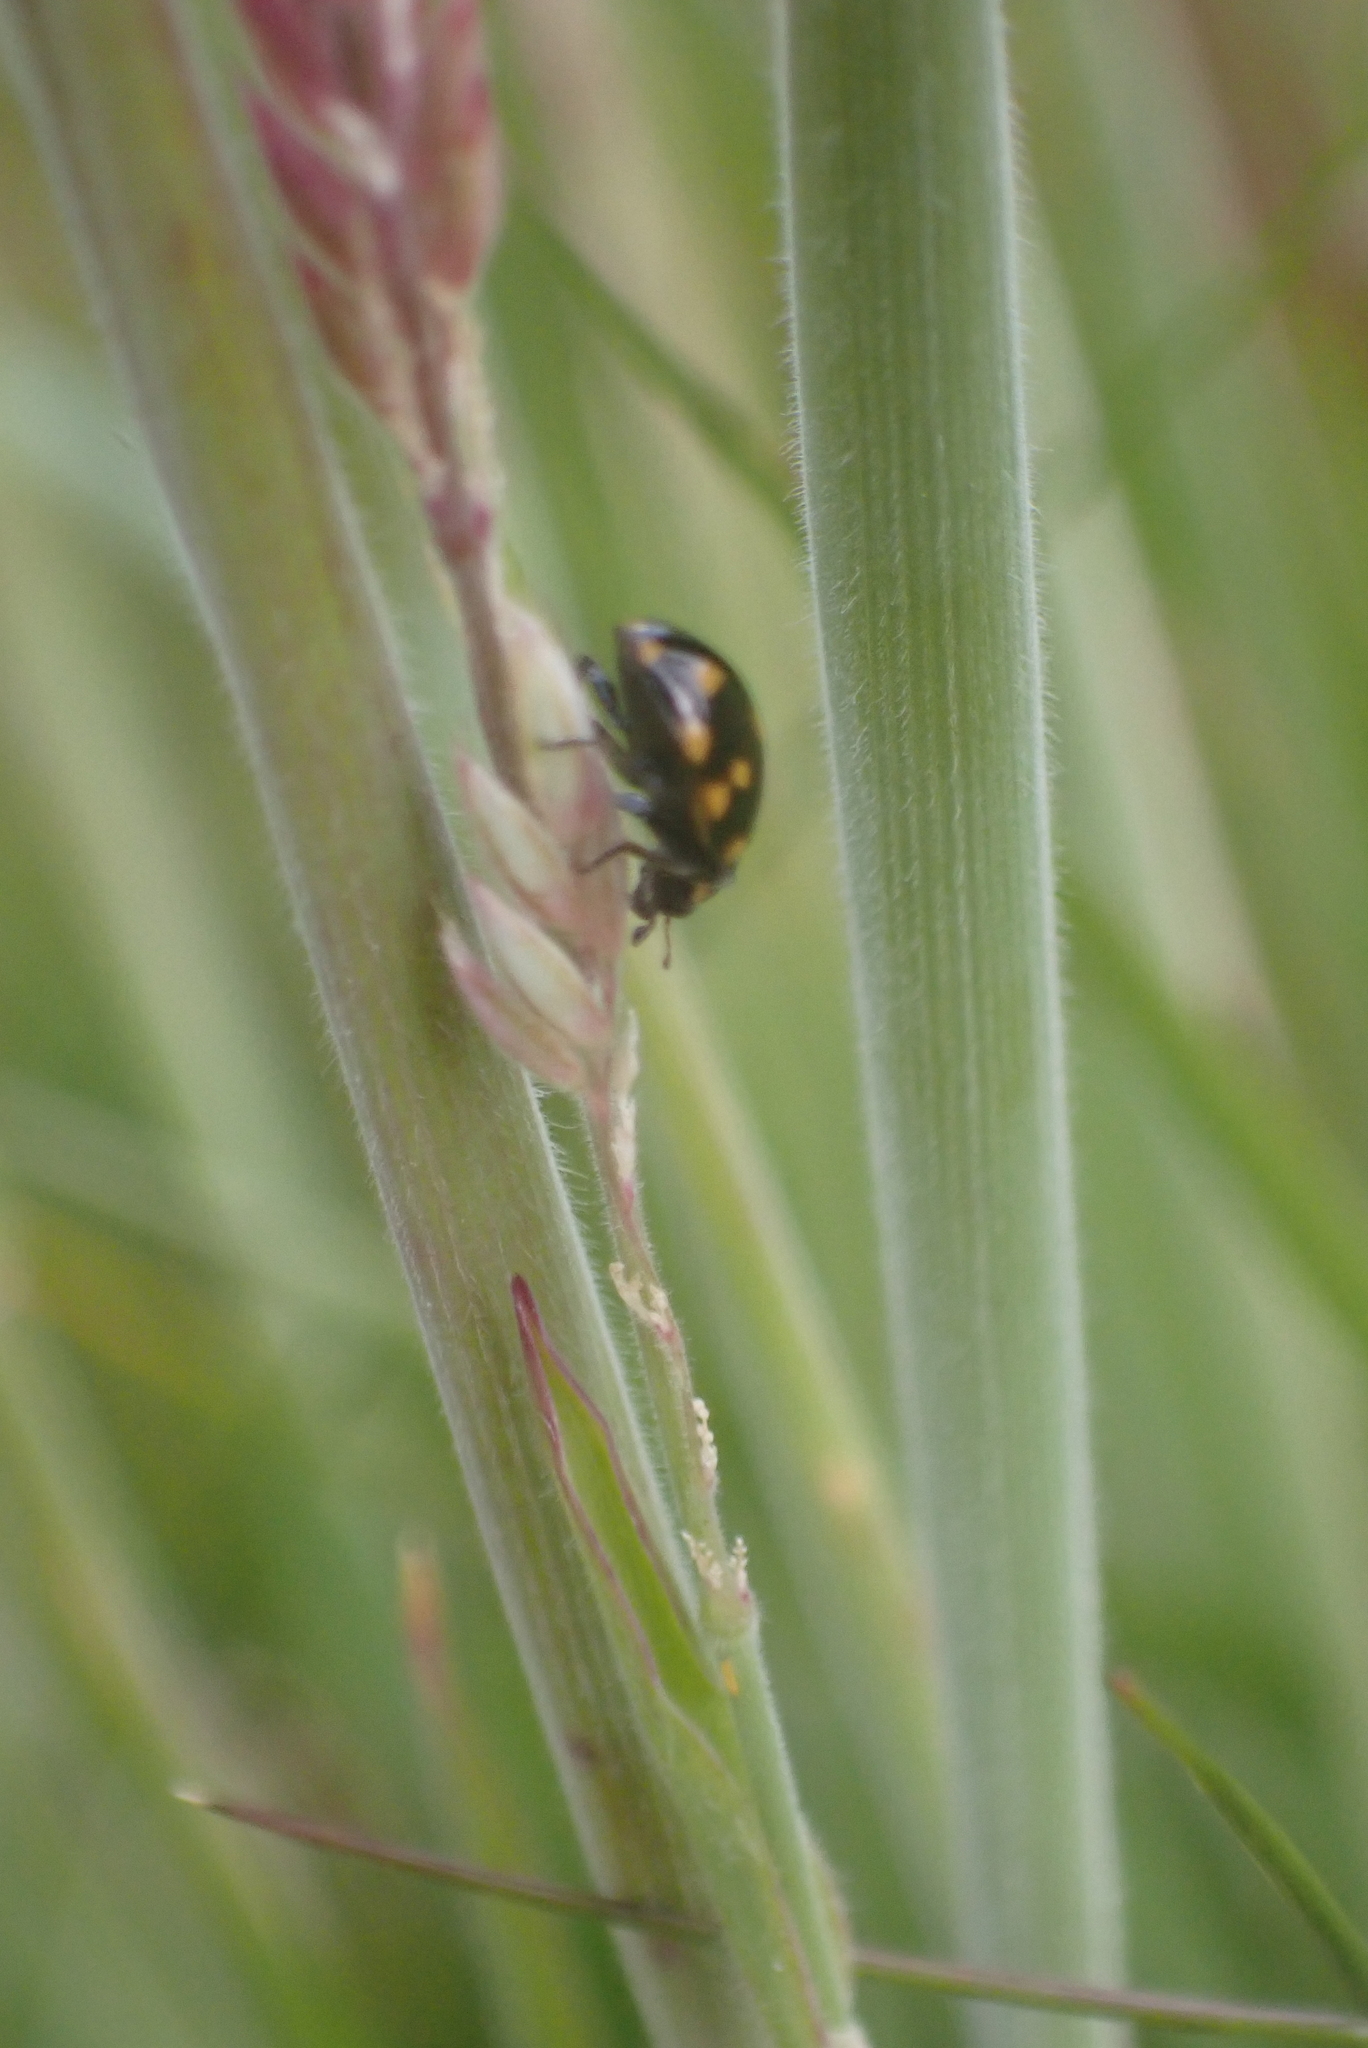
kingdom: Animalia
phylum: Arthropoda
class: Insecta
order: Coleoptera
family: Coccinellidae
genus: Coccinella
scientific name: Coccinella leonina
